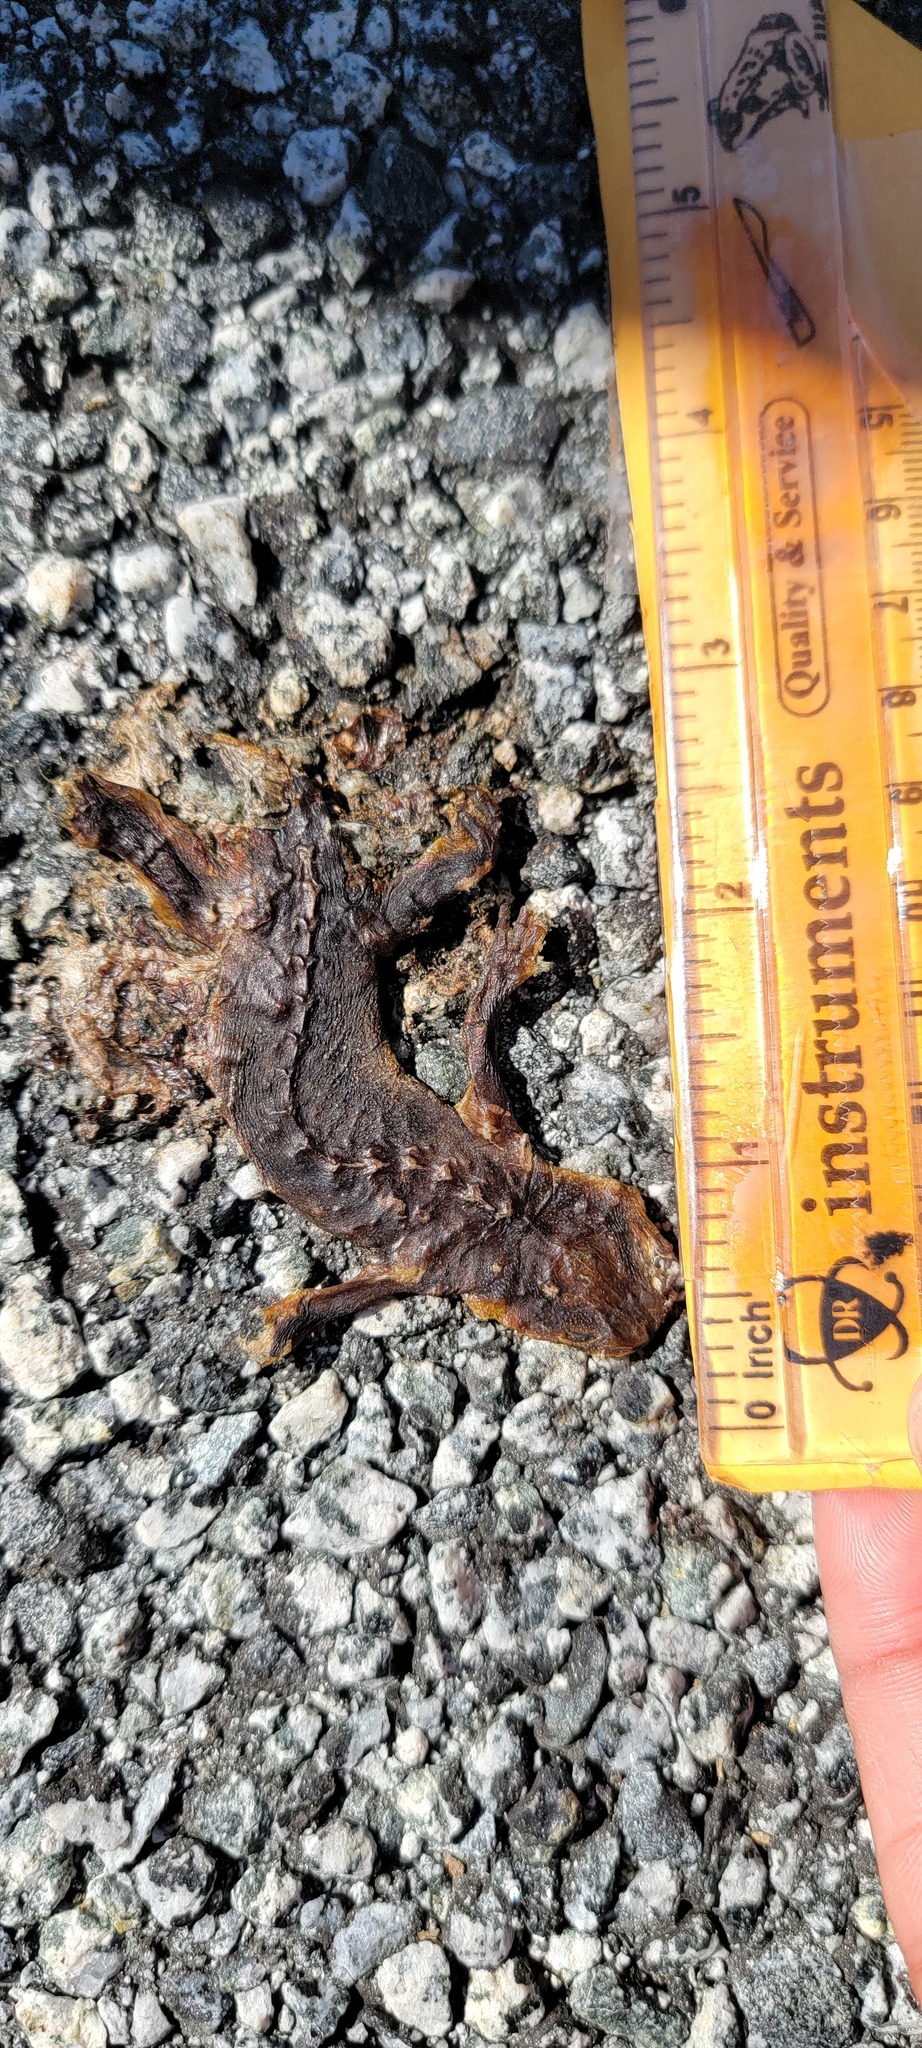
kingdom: Animalia
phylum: Chordata
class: Amphibia
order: Caudata
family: Salamandridae
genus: Taricha
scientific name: Taricha
